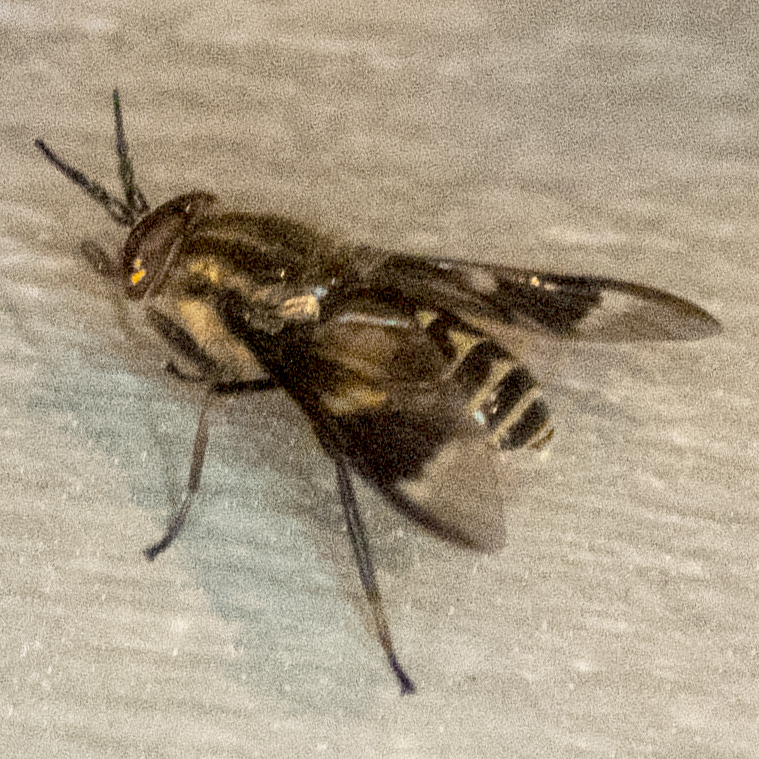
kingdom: Animalia
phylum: Arthropoda
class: Insecta
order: Diptera
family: Tabanidae
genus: Chrysops
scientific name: Chrysops sackeni
